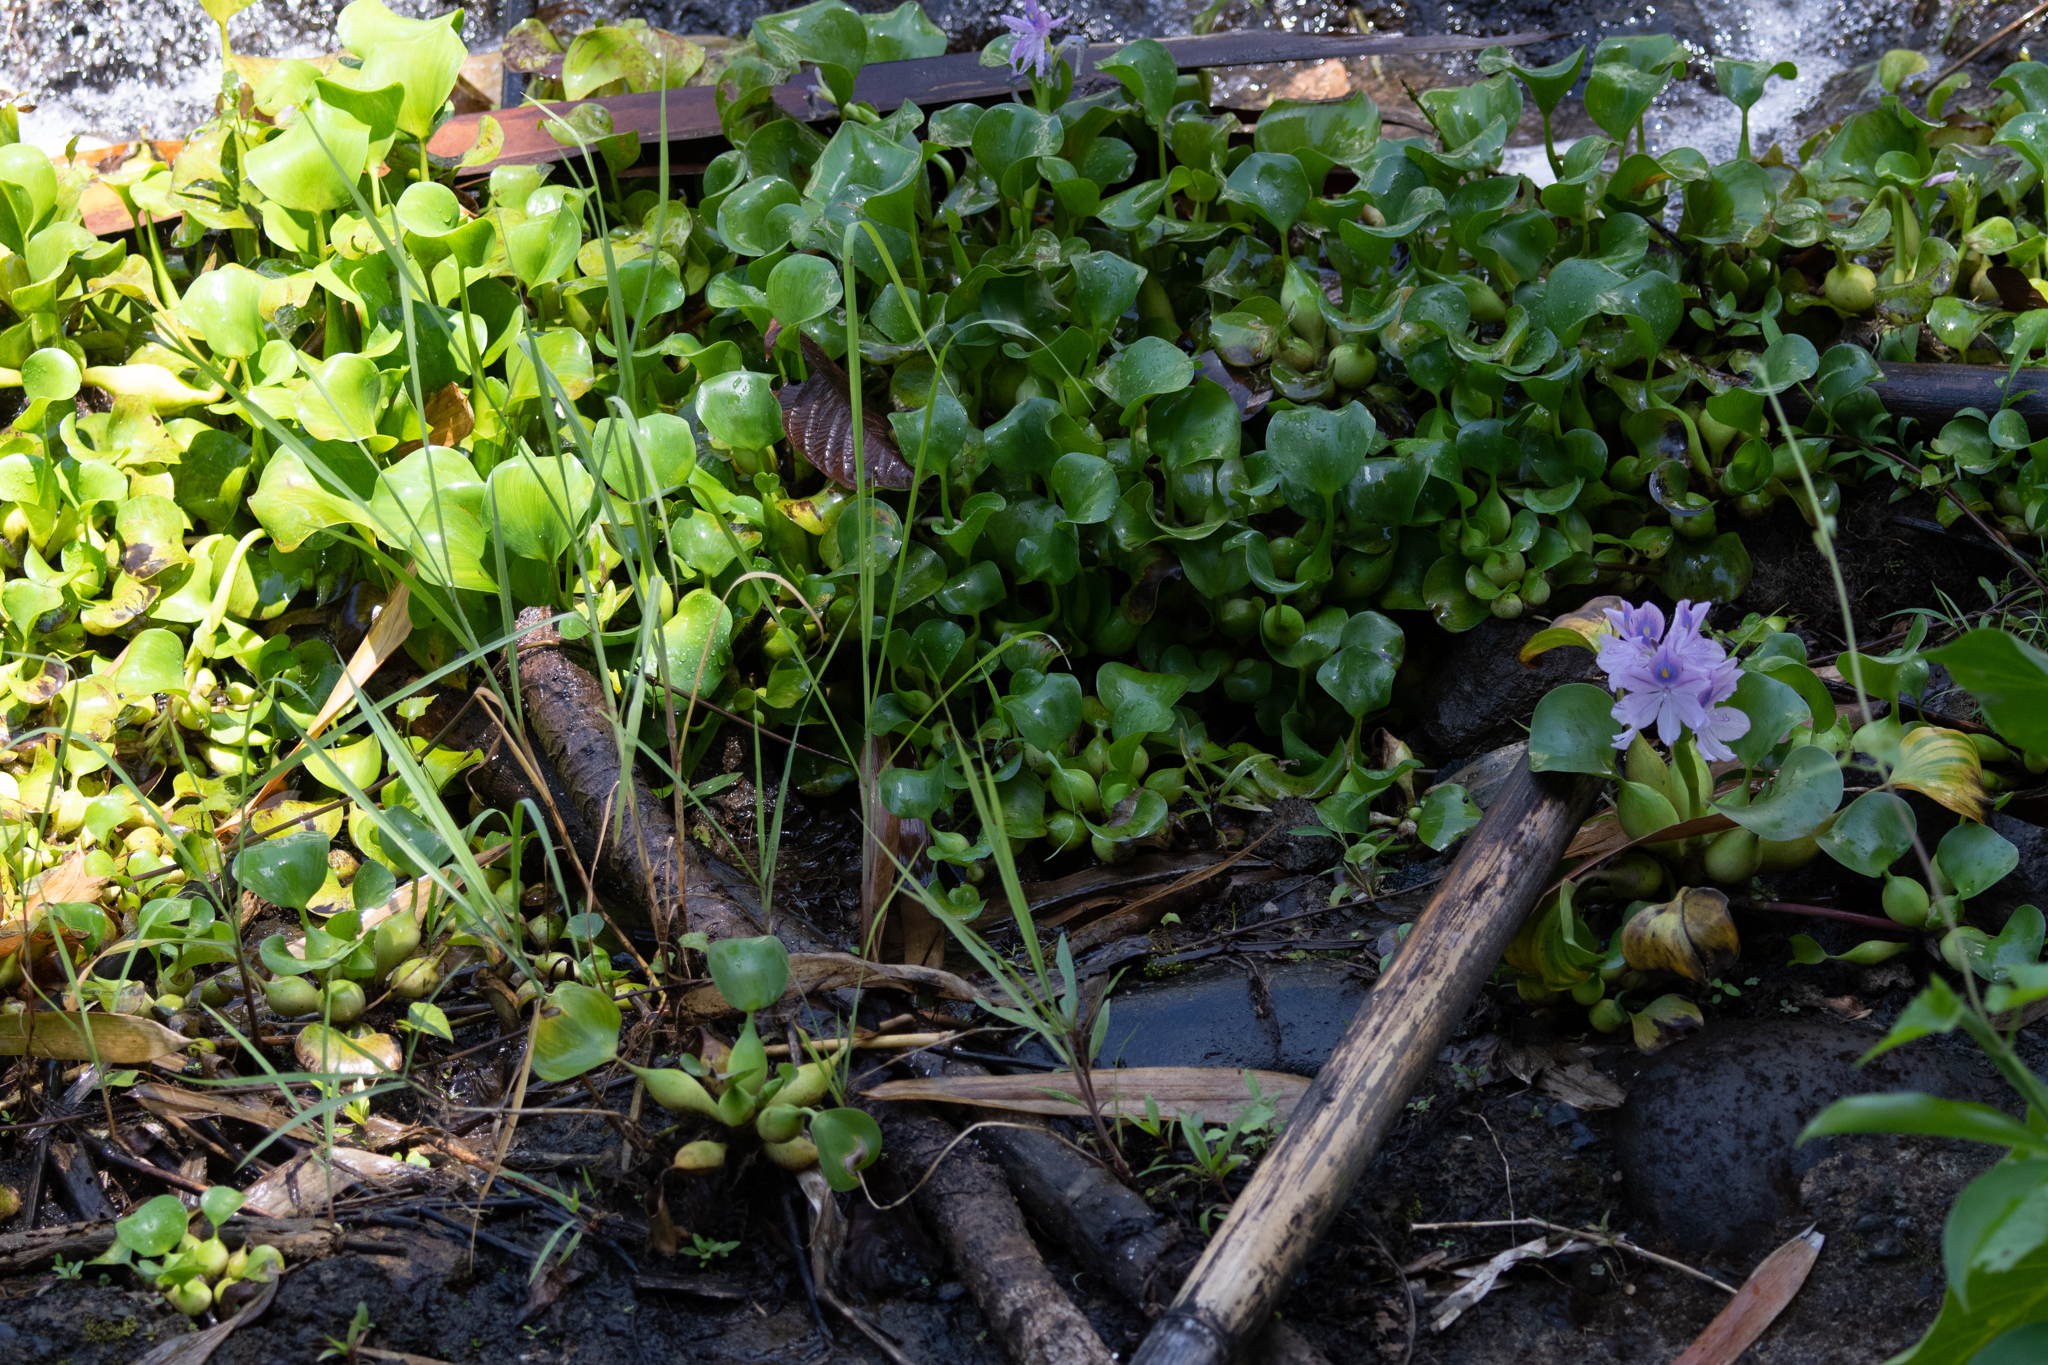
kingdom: Plantae
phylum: Tracheophyta
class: Liliopsida
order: Commelinales
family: Pontederiaceae
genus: Pontederia
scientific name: Pontederia crassipes
